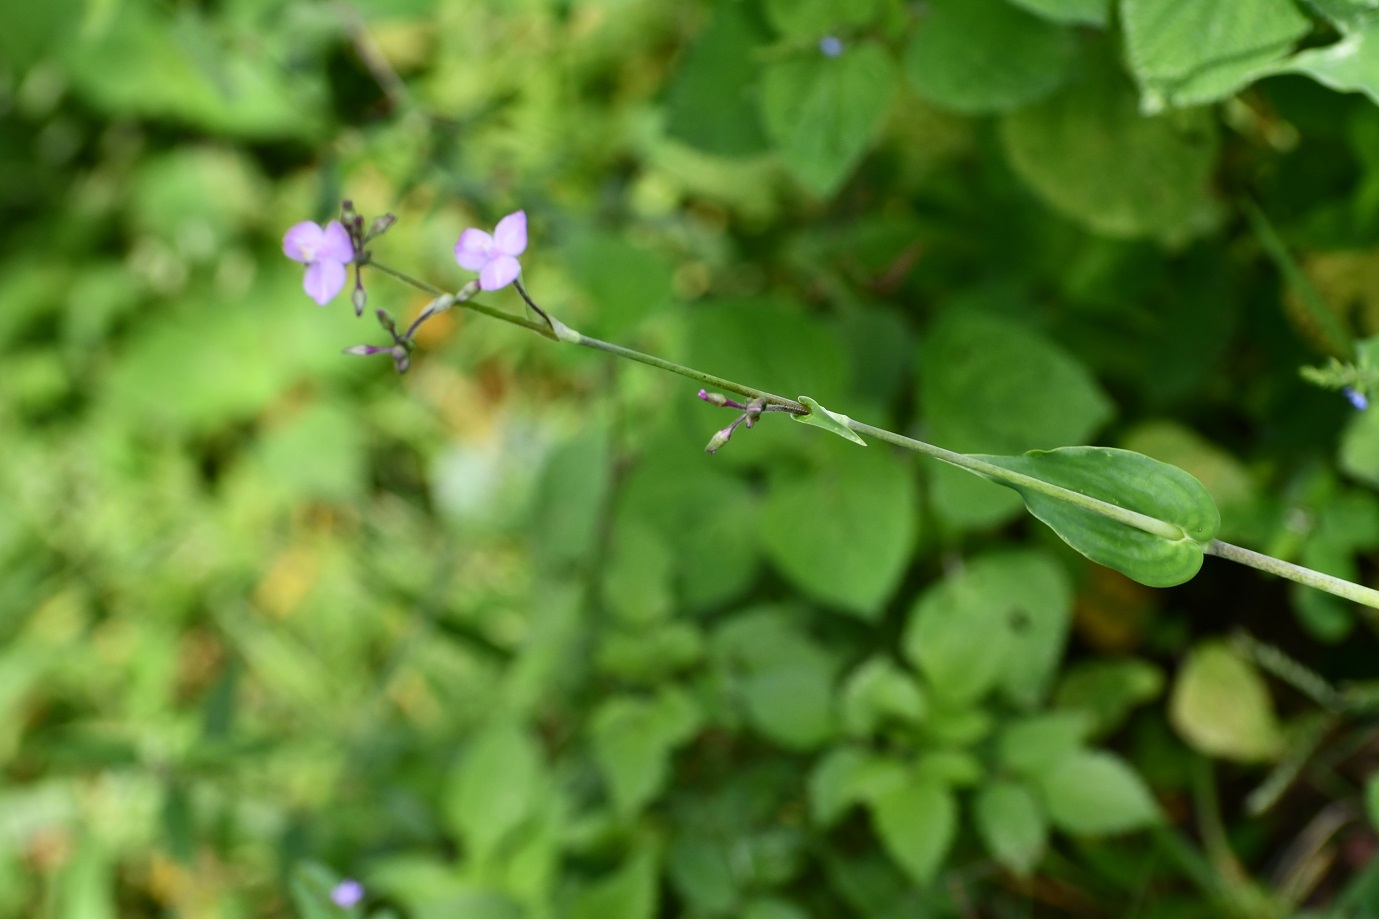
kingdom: Plantae
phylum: Tracheophyta
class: Liliopsida
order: Commelinales
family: Commelinaceae
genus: Callisia
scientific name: Callisia amplexicaulis
